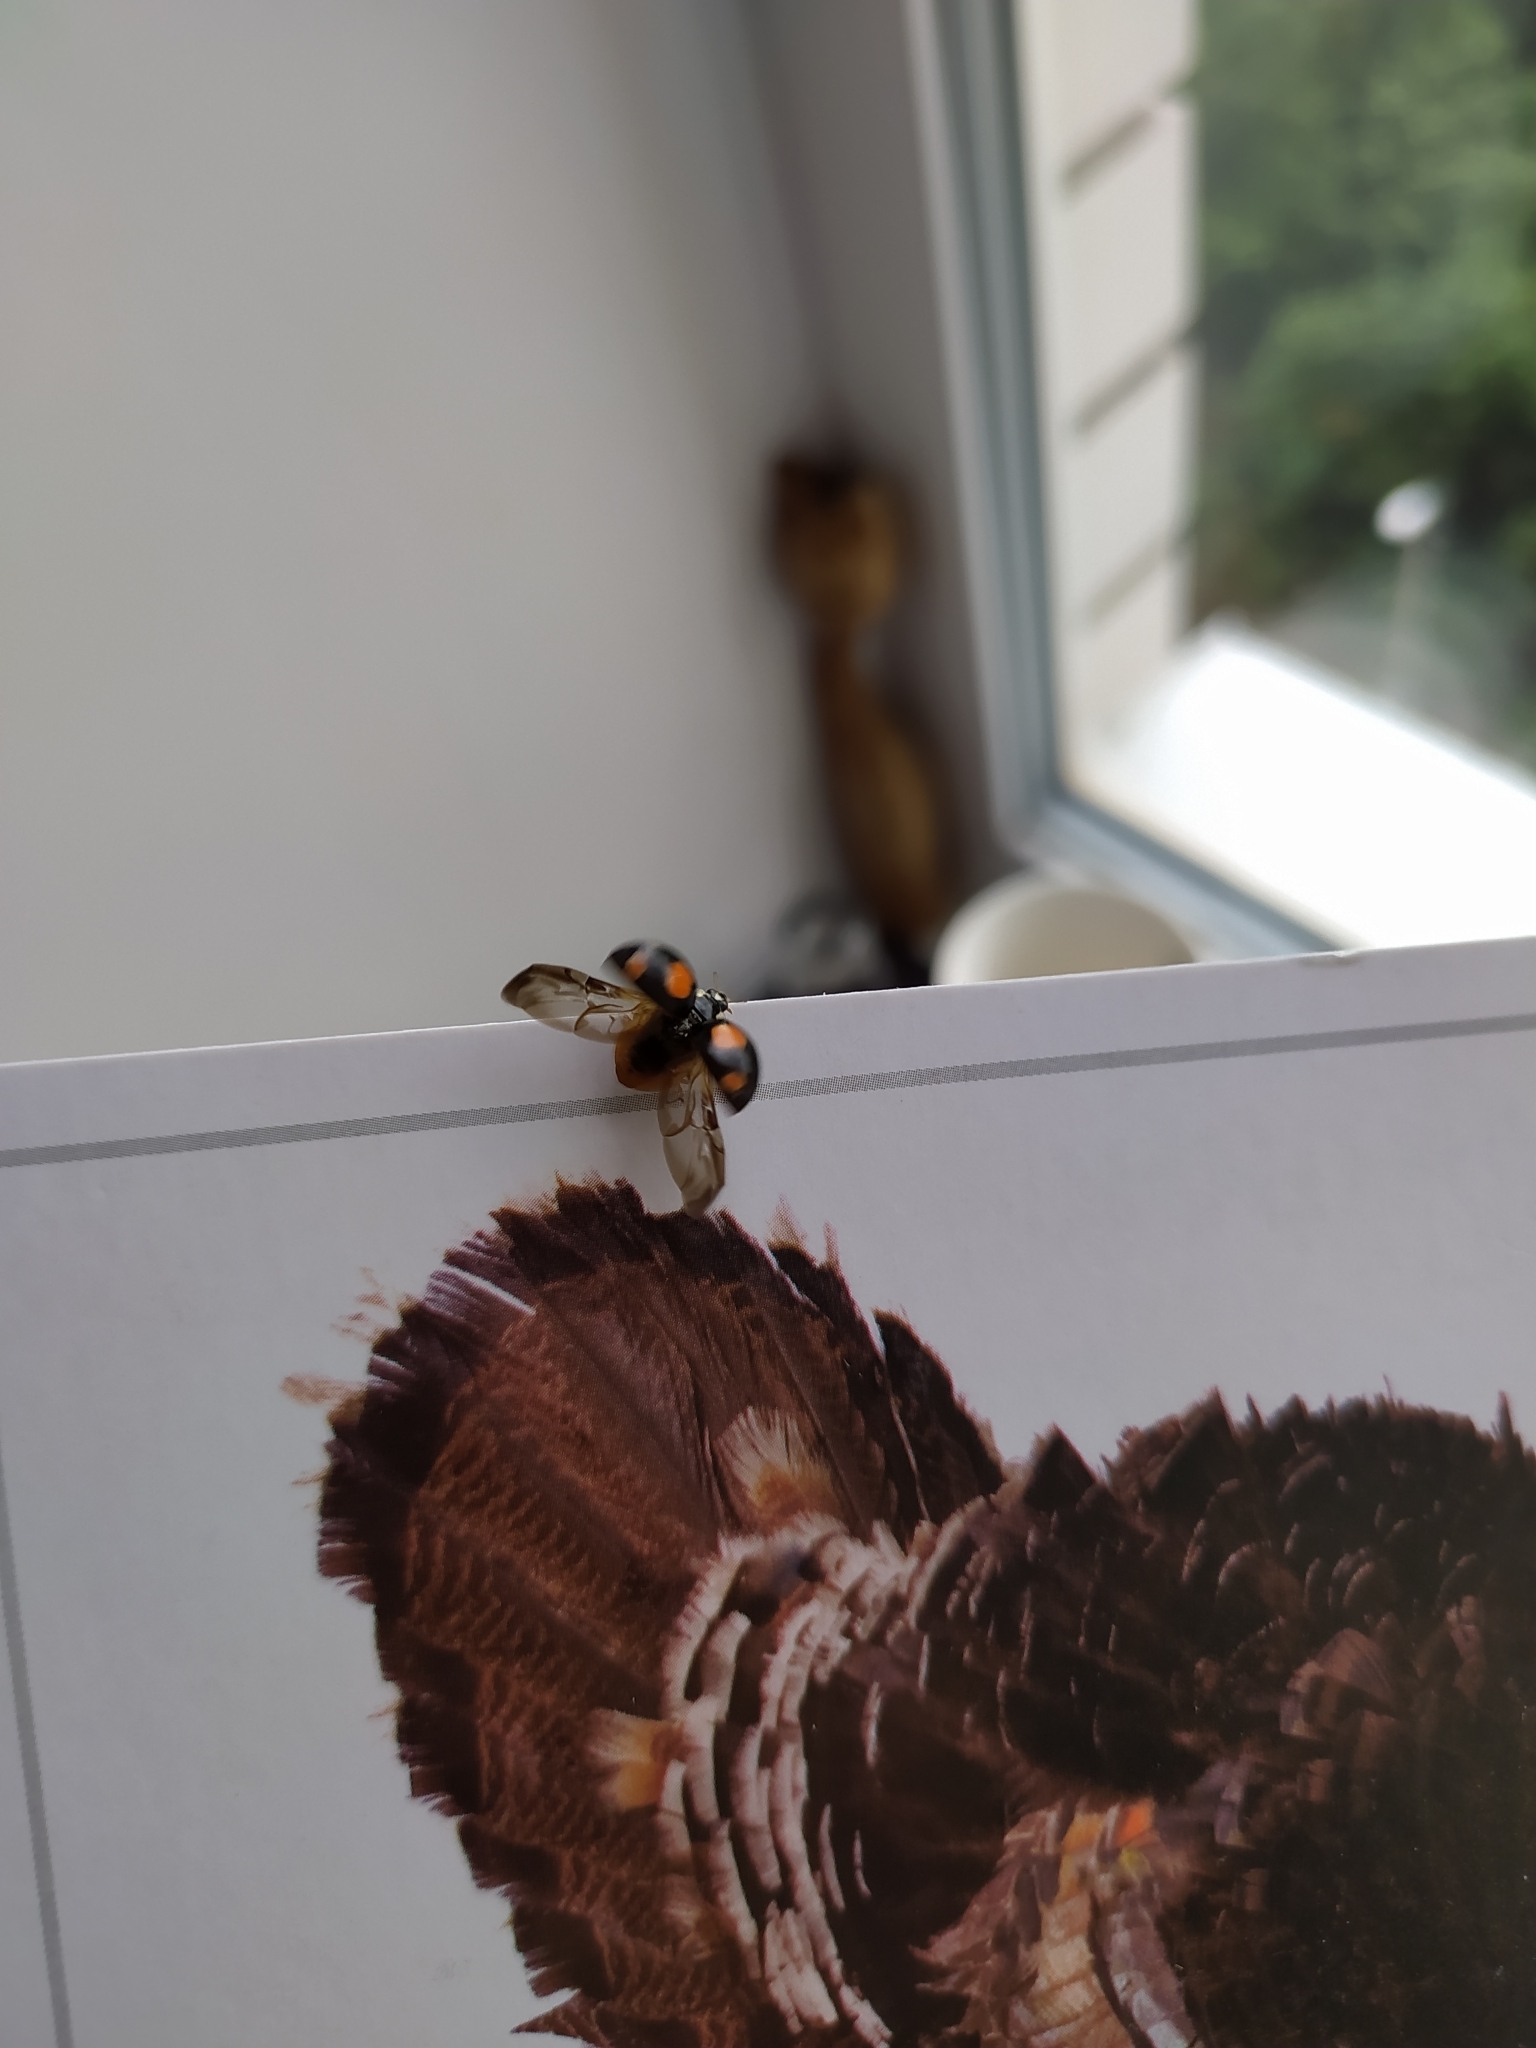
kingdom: Animalia
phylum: Arthropoda
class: Insecta
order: Coleoptera
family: Coccinellidae
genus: Harmonia
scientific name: Harmonia axyridis
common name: Harlequin ladybird
